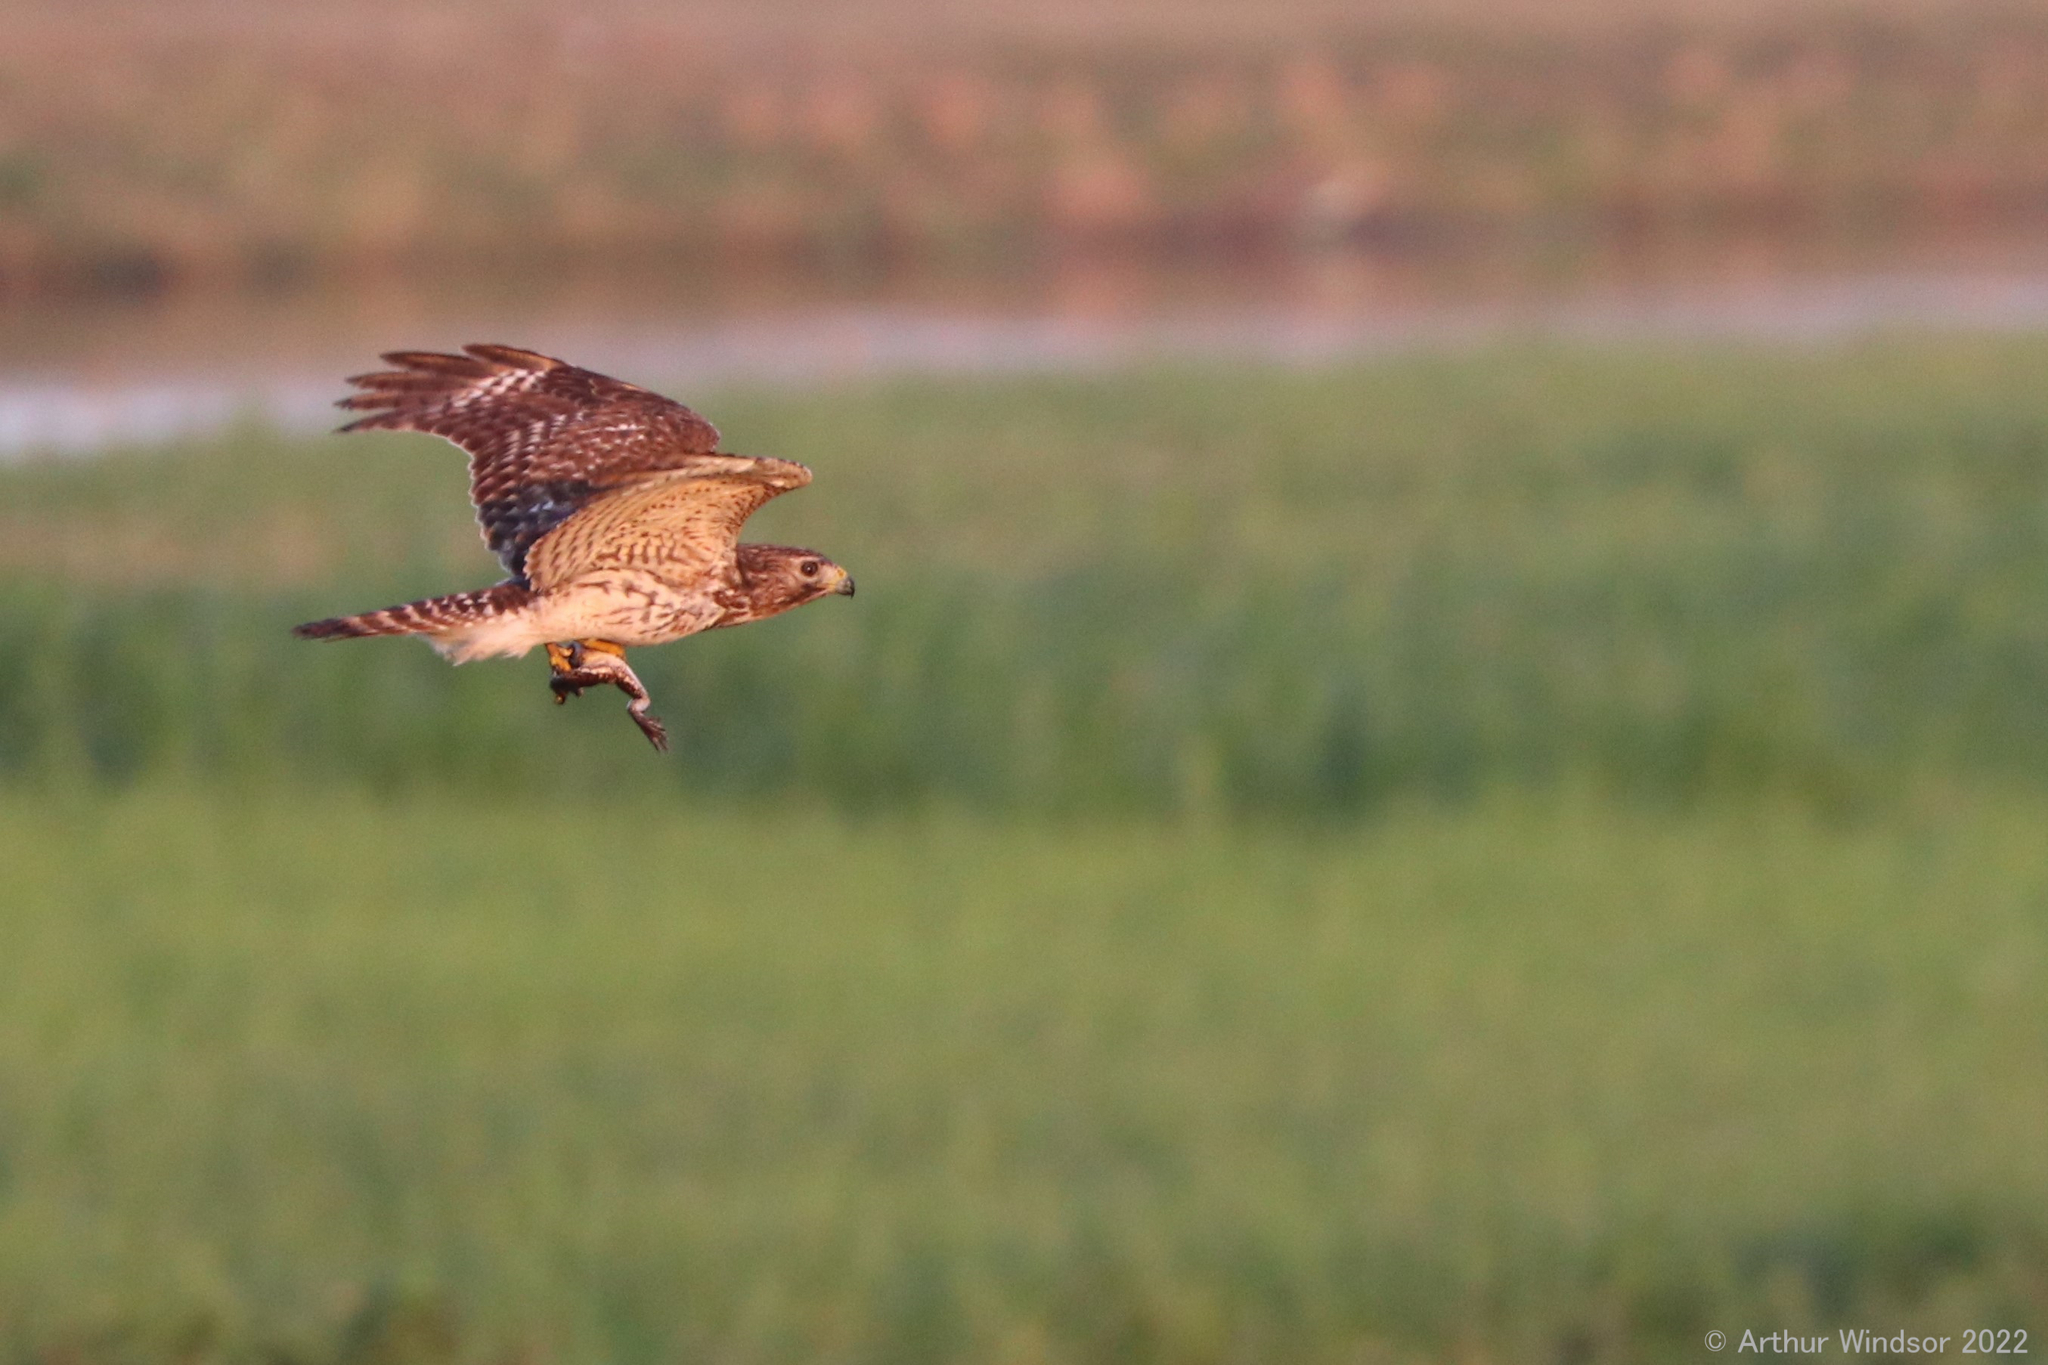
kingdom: Animalia
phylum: Chordata
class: Aves
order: Accipitriformes
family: Accipitridae
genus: Buteo
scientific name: Buteo lineatus
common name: Red-shouldered hawk
